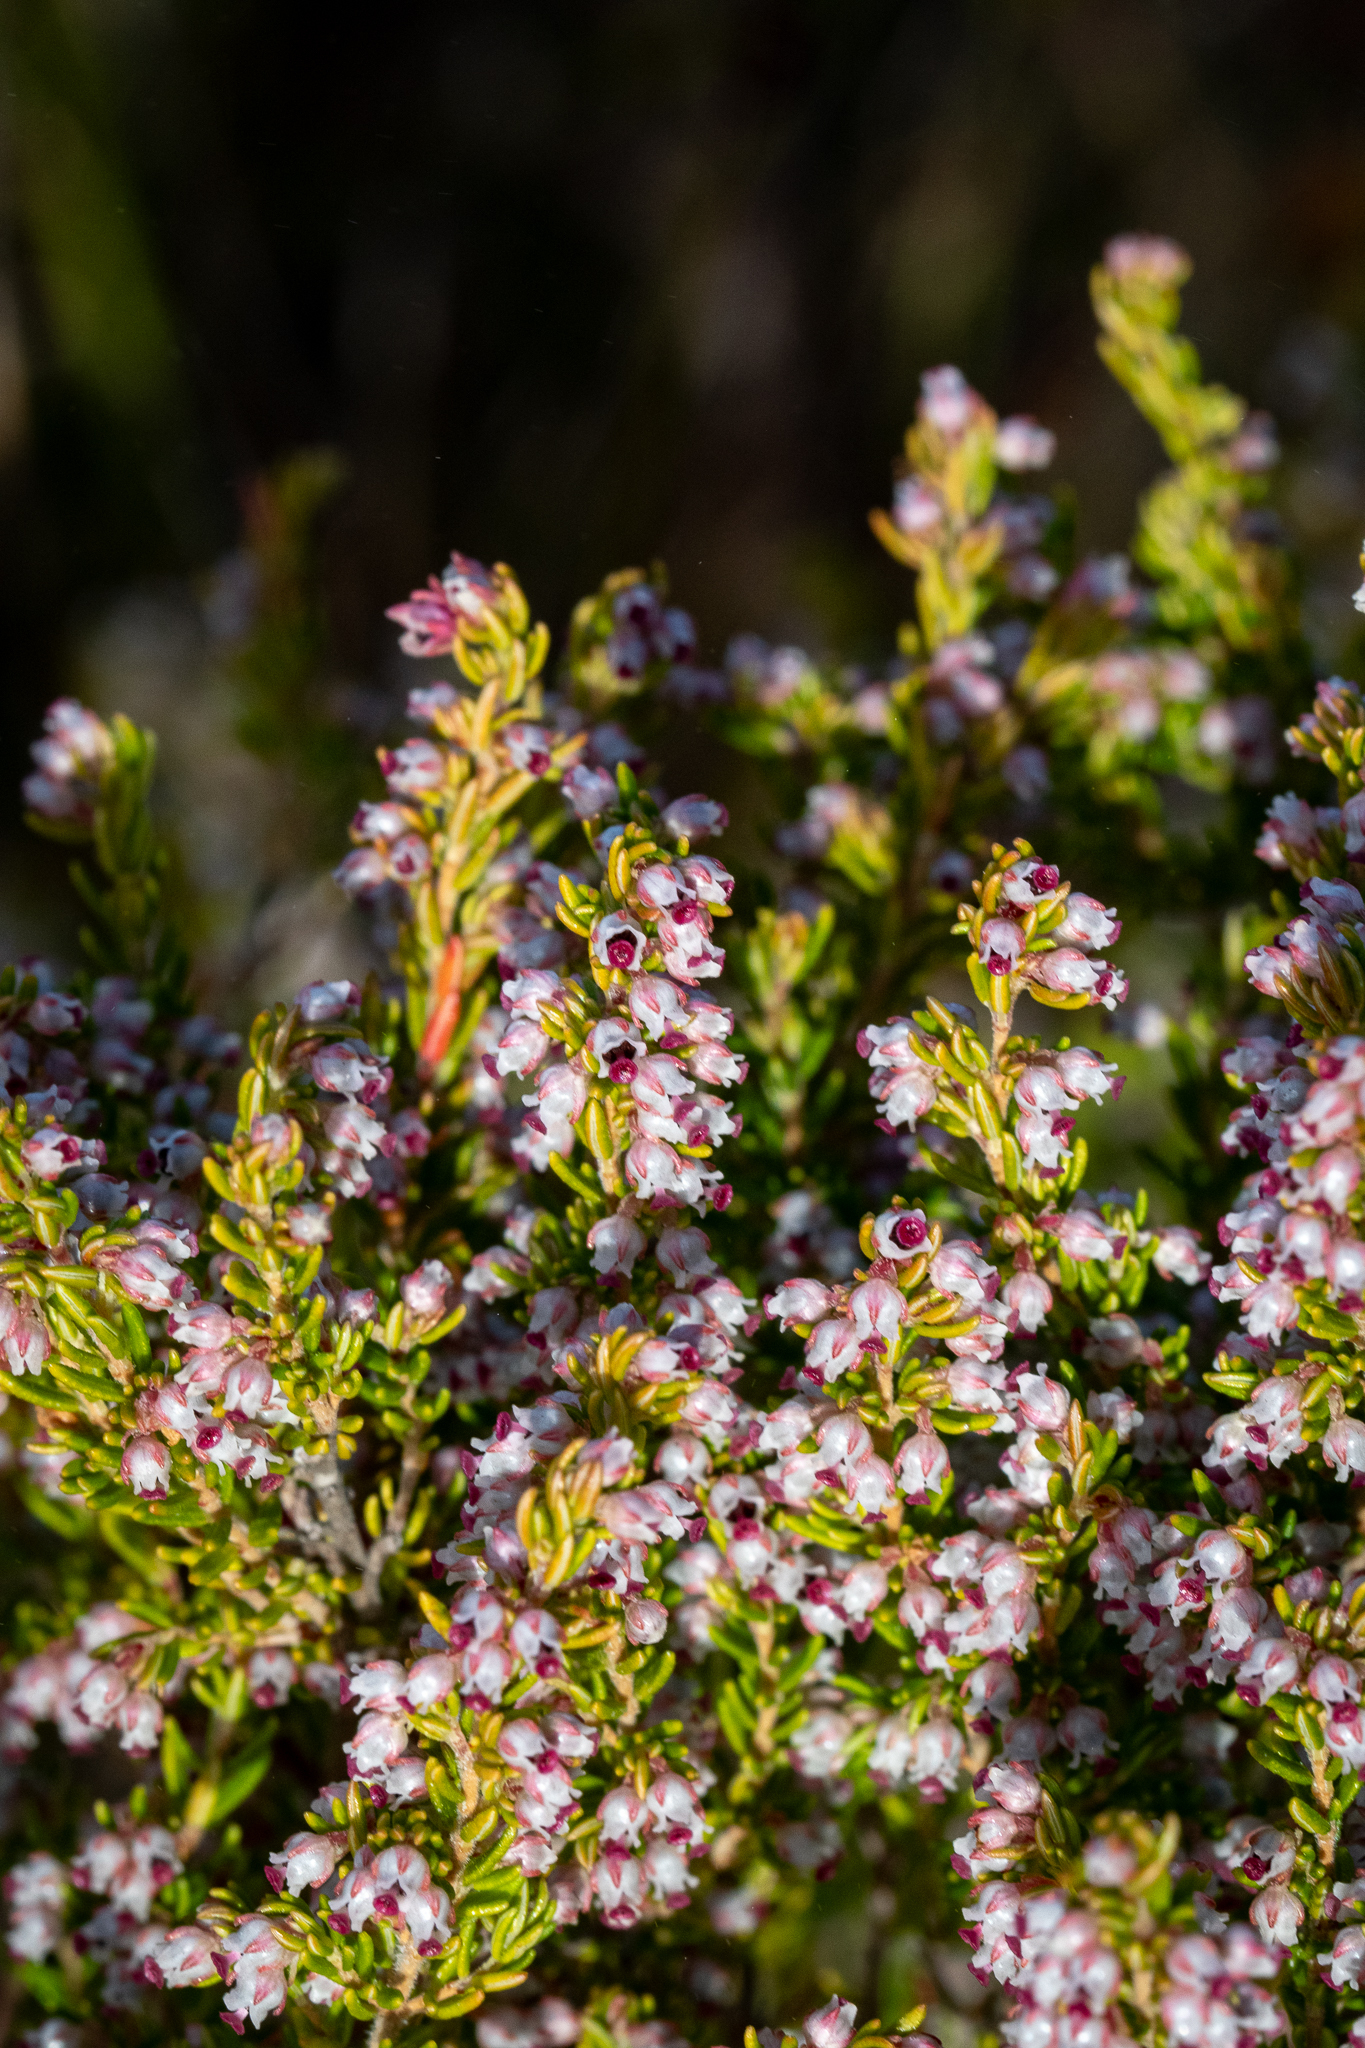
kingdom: Plantae
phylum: Tracheophyta
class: Magnoliopsida
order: Ericales
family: Ericaceae
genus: Erica
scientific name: Erica hispidula
